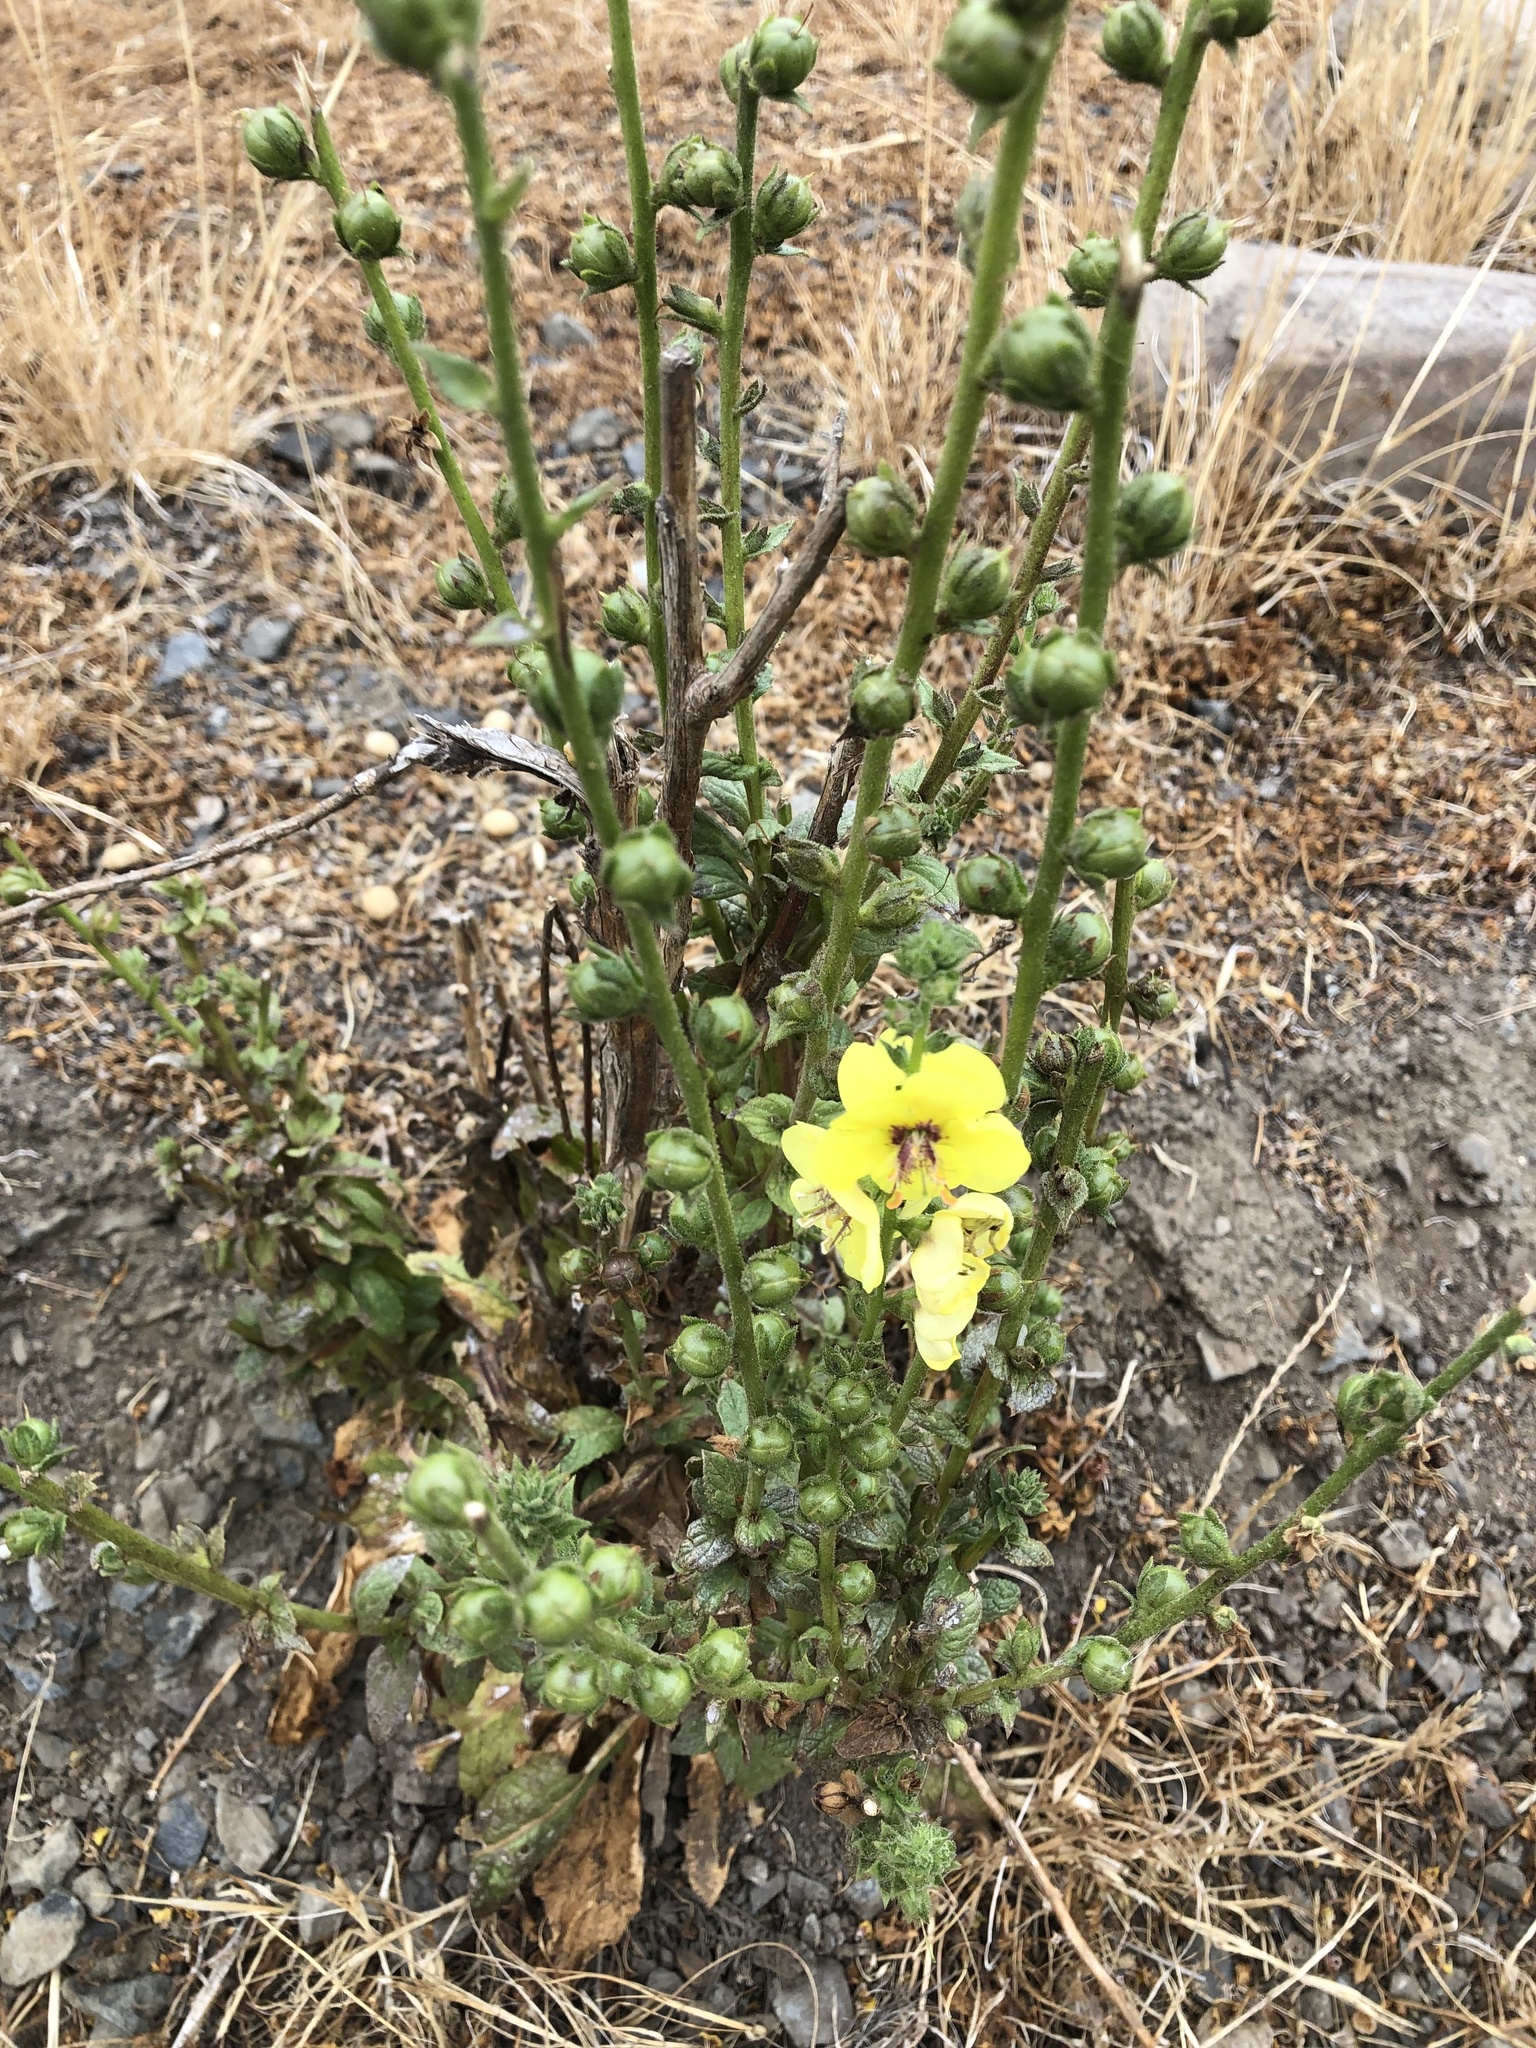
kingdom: Plantae
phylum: Tracheophyta
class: Magnoliopsida
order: Lamiales
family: Scrophulariaceae
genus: Verbascum
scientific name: Verbascum virgatum
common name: Twiggy mullein
